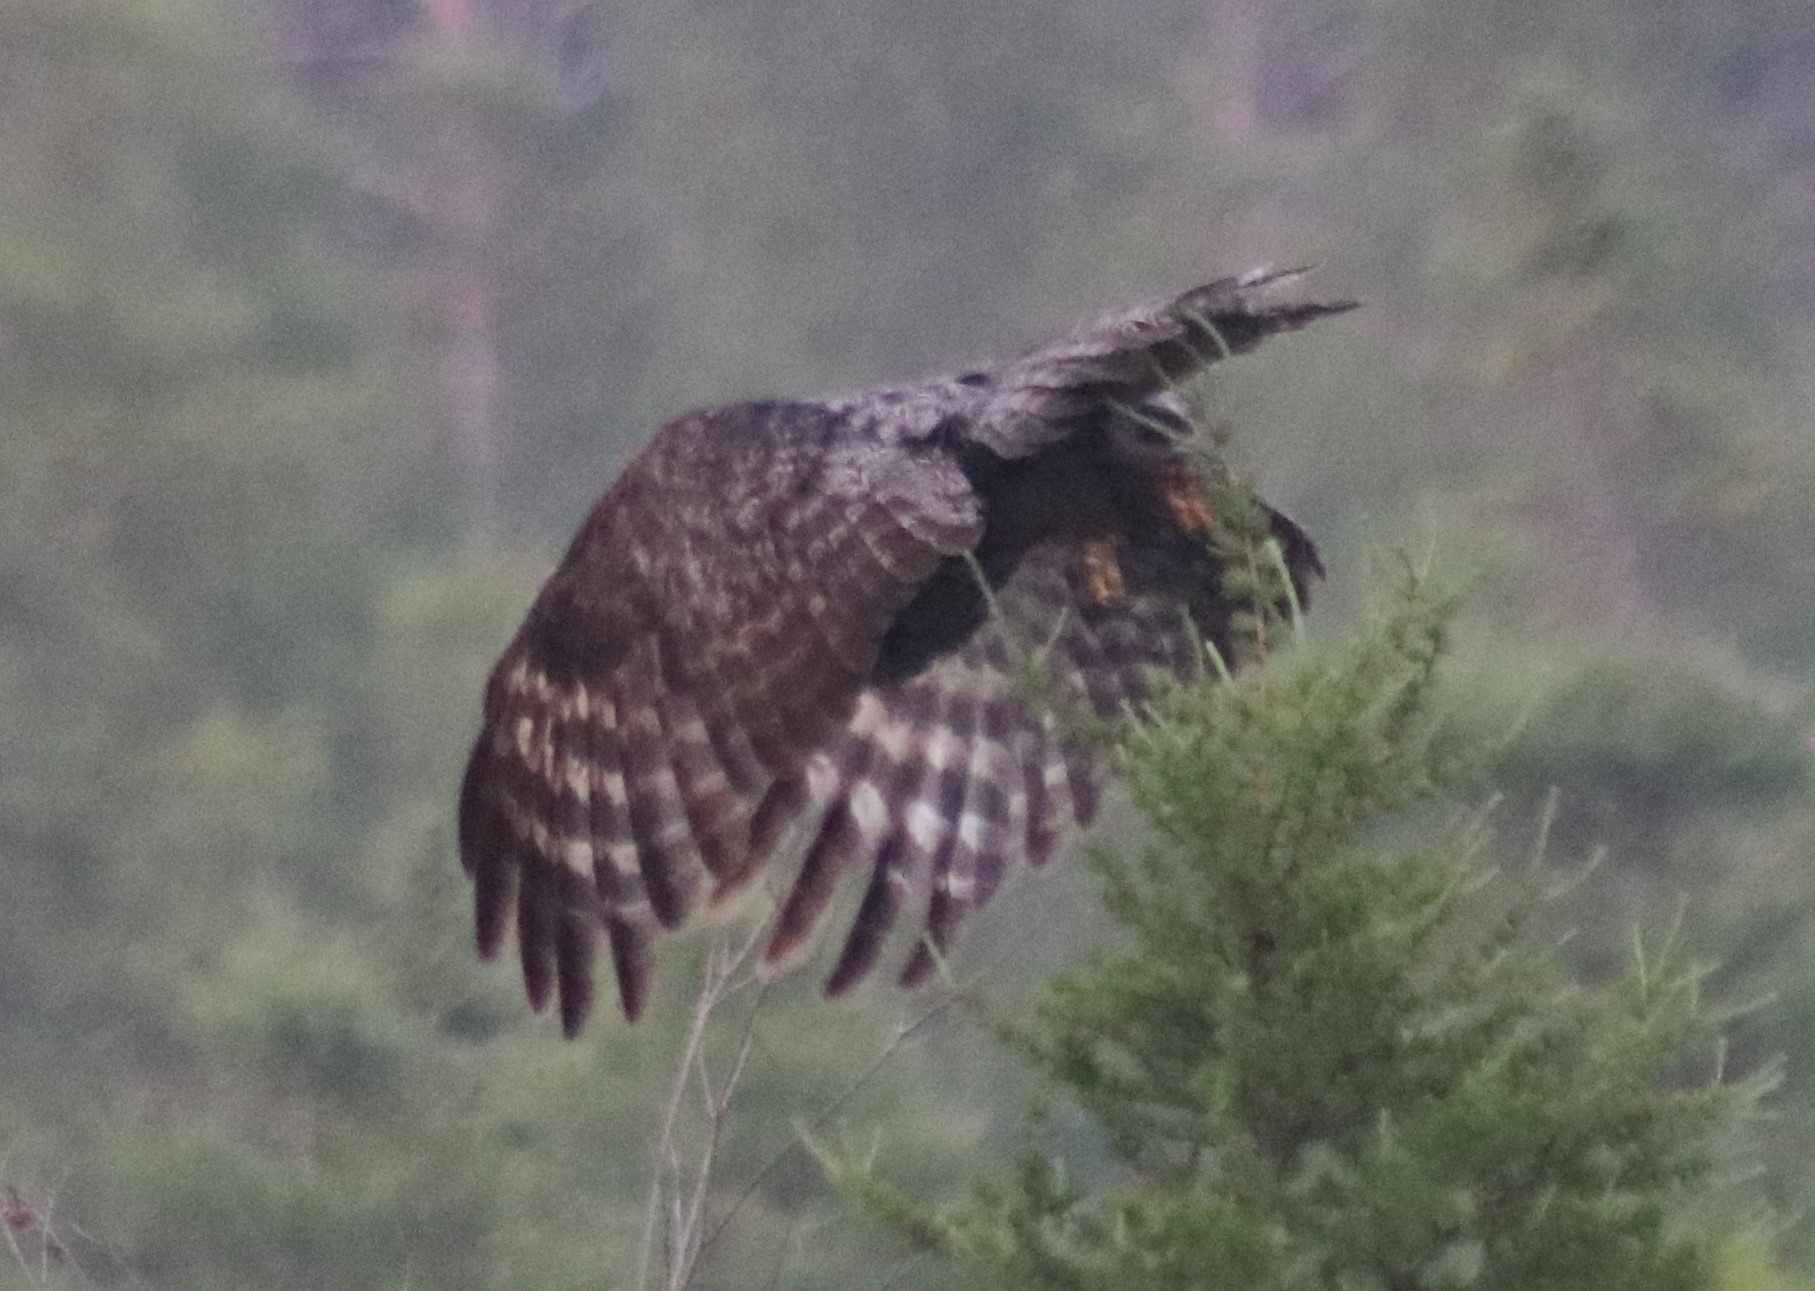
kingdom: Animalia
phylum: Chordata
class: Aves
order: Strigiformes
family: Strigidae
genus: Strix
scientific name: Strix nebulosa
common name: Great grey owl
